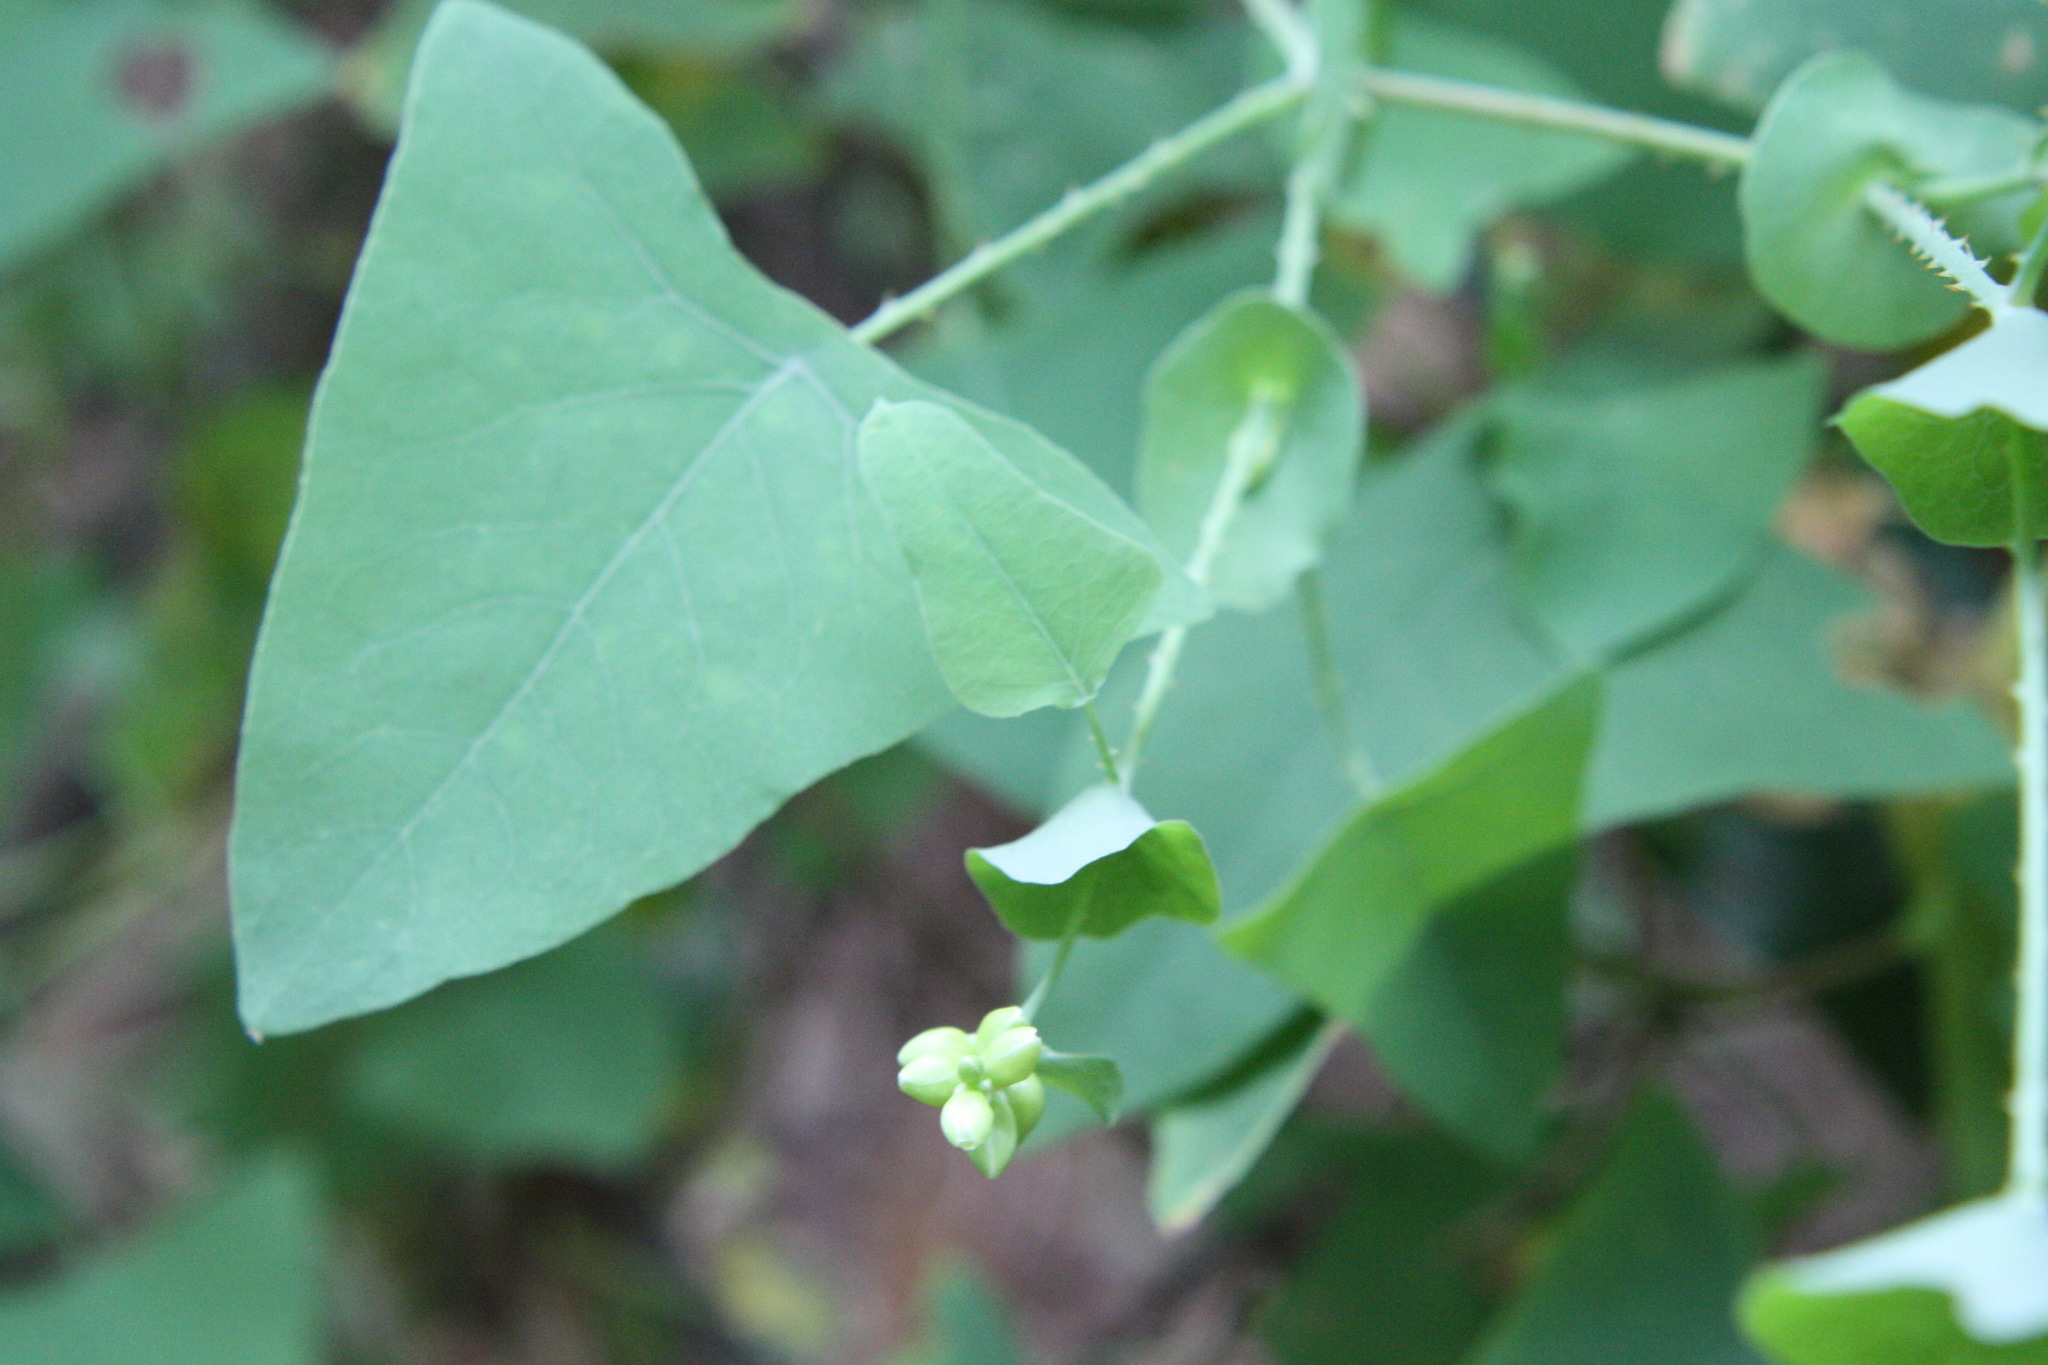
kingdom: Plantae
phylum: Tracheophyta
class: Magnoliopsida
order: Caryophyllales
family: Polygonaceae
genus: Persicaria
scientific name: Persicaria perfoliata
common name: Asiatic tearthumb
